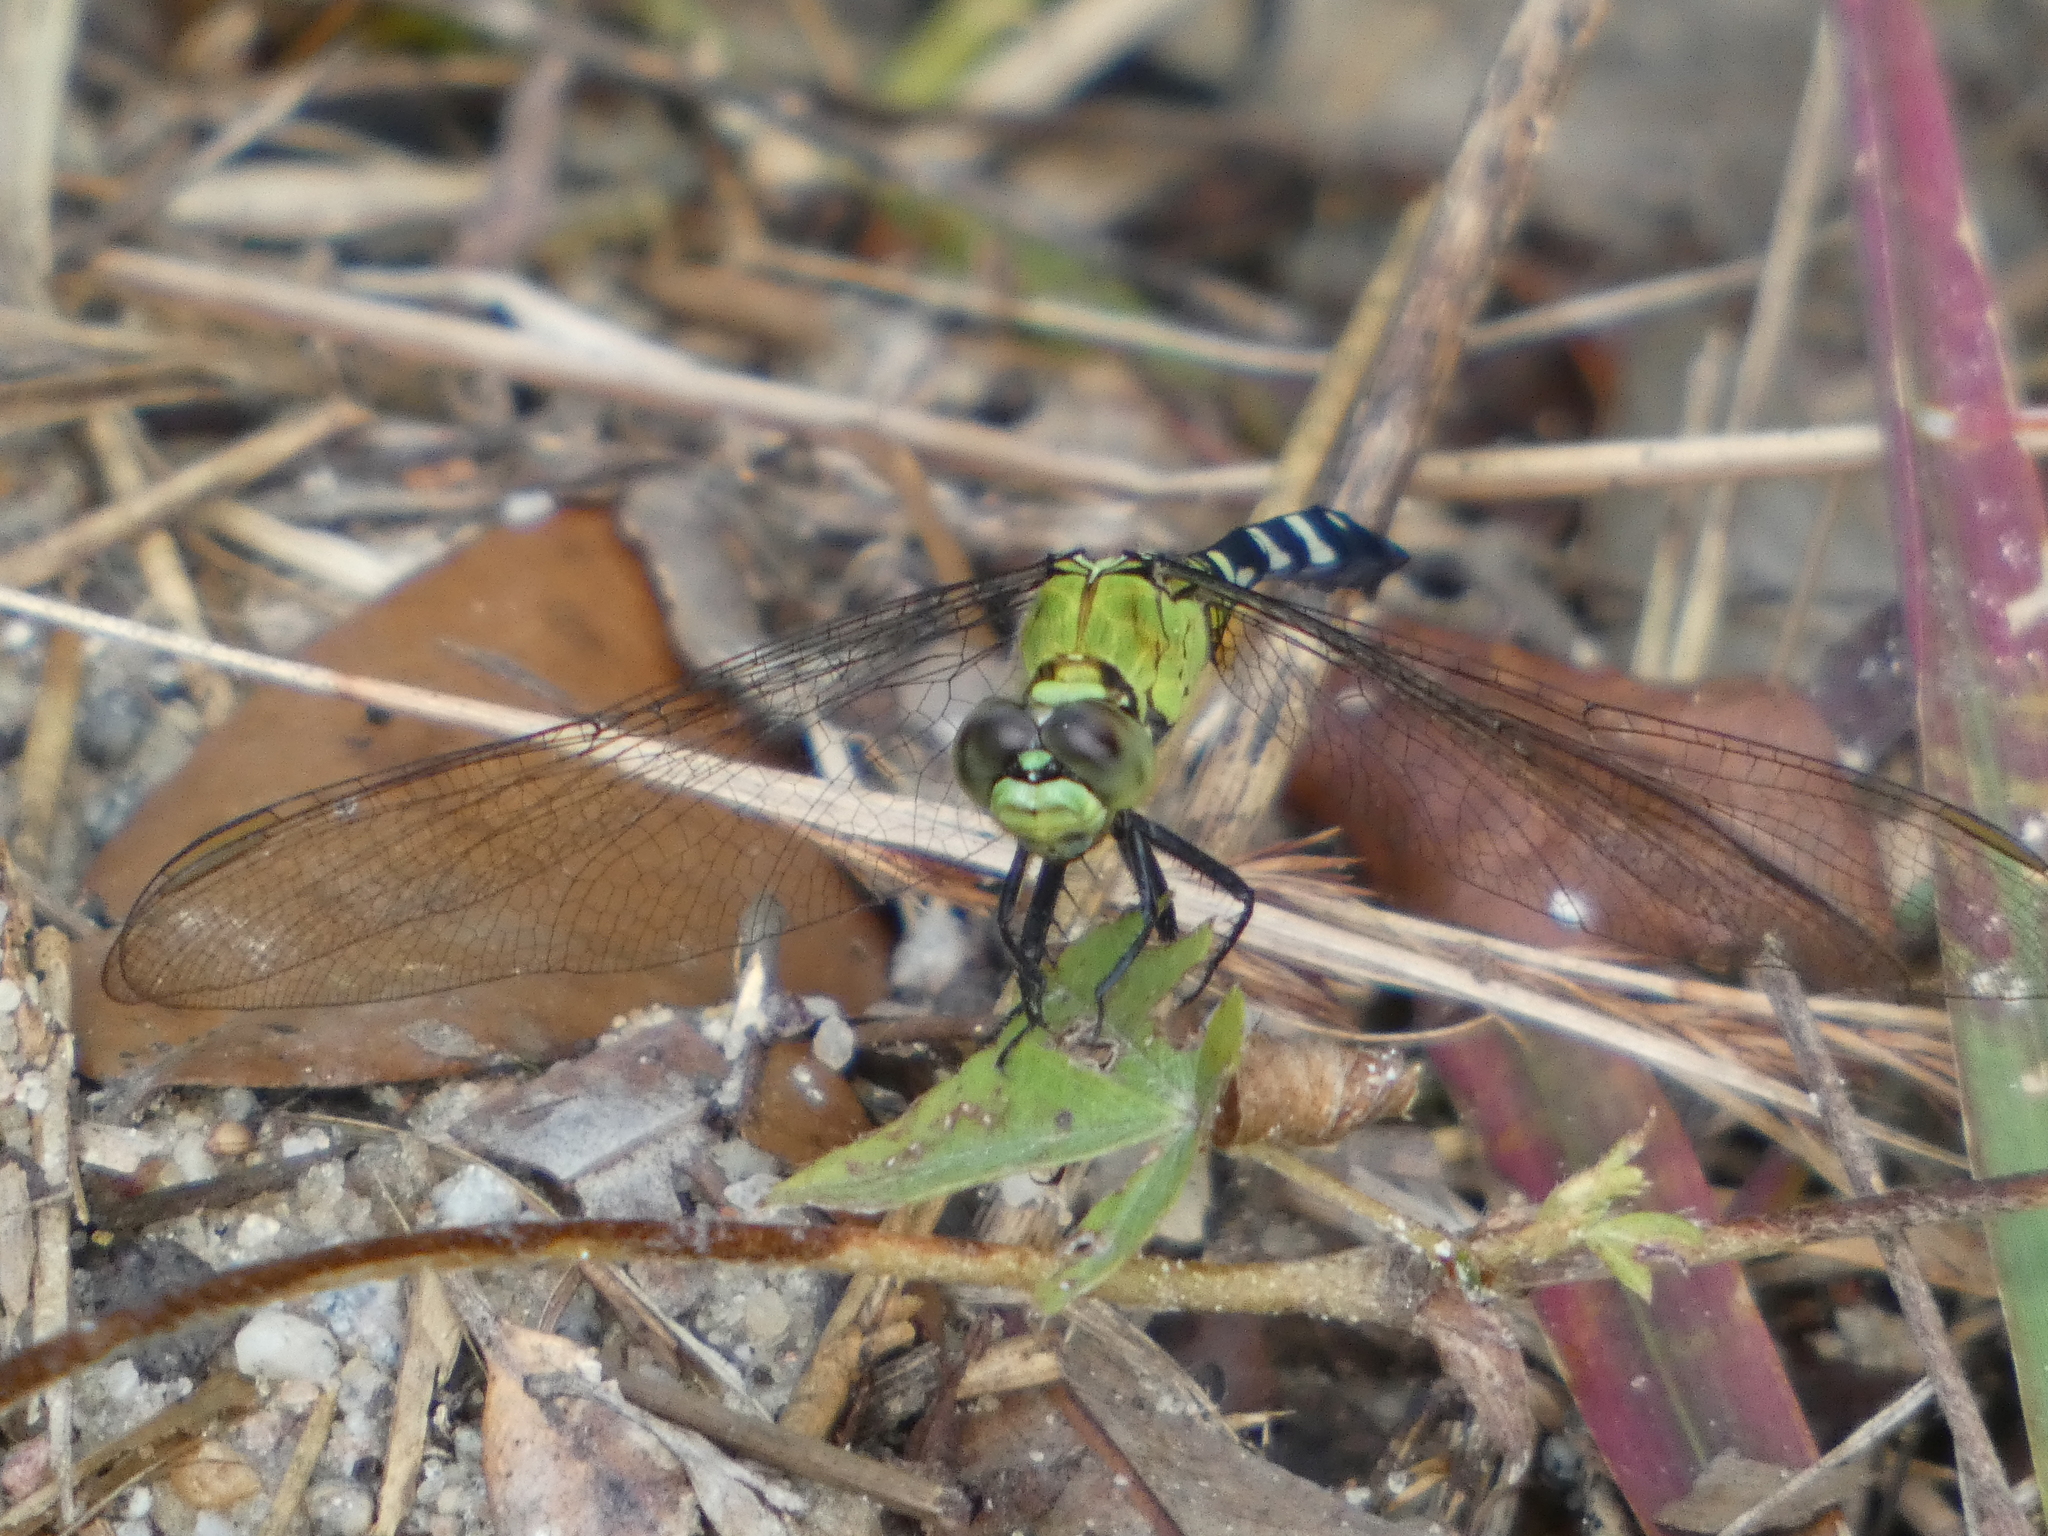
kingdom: Animalia
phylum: Arthropoda
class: Insecta
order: Odonata
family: Libellulidae
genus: Erythemis
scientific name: Erythemis simplicicollis
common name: Eastern pondhawk
